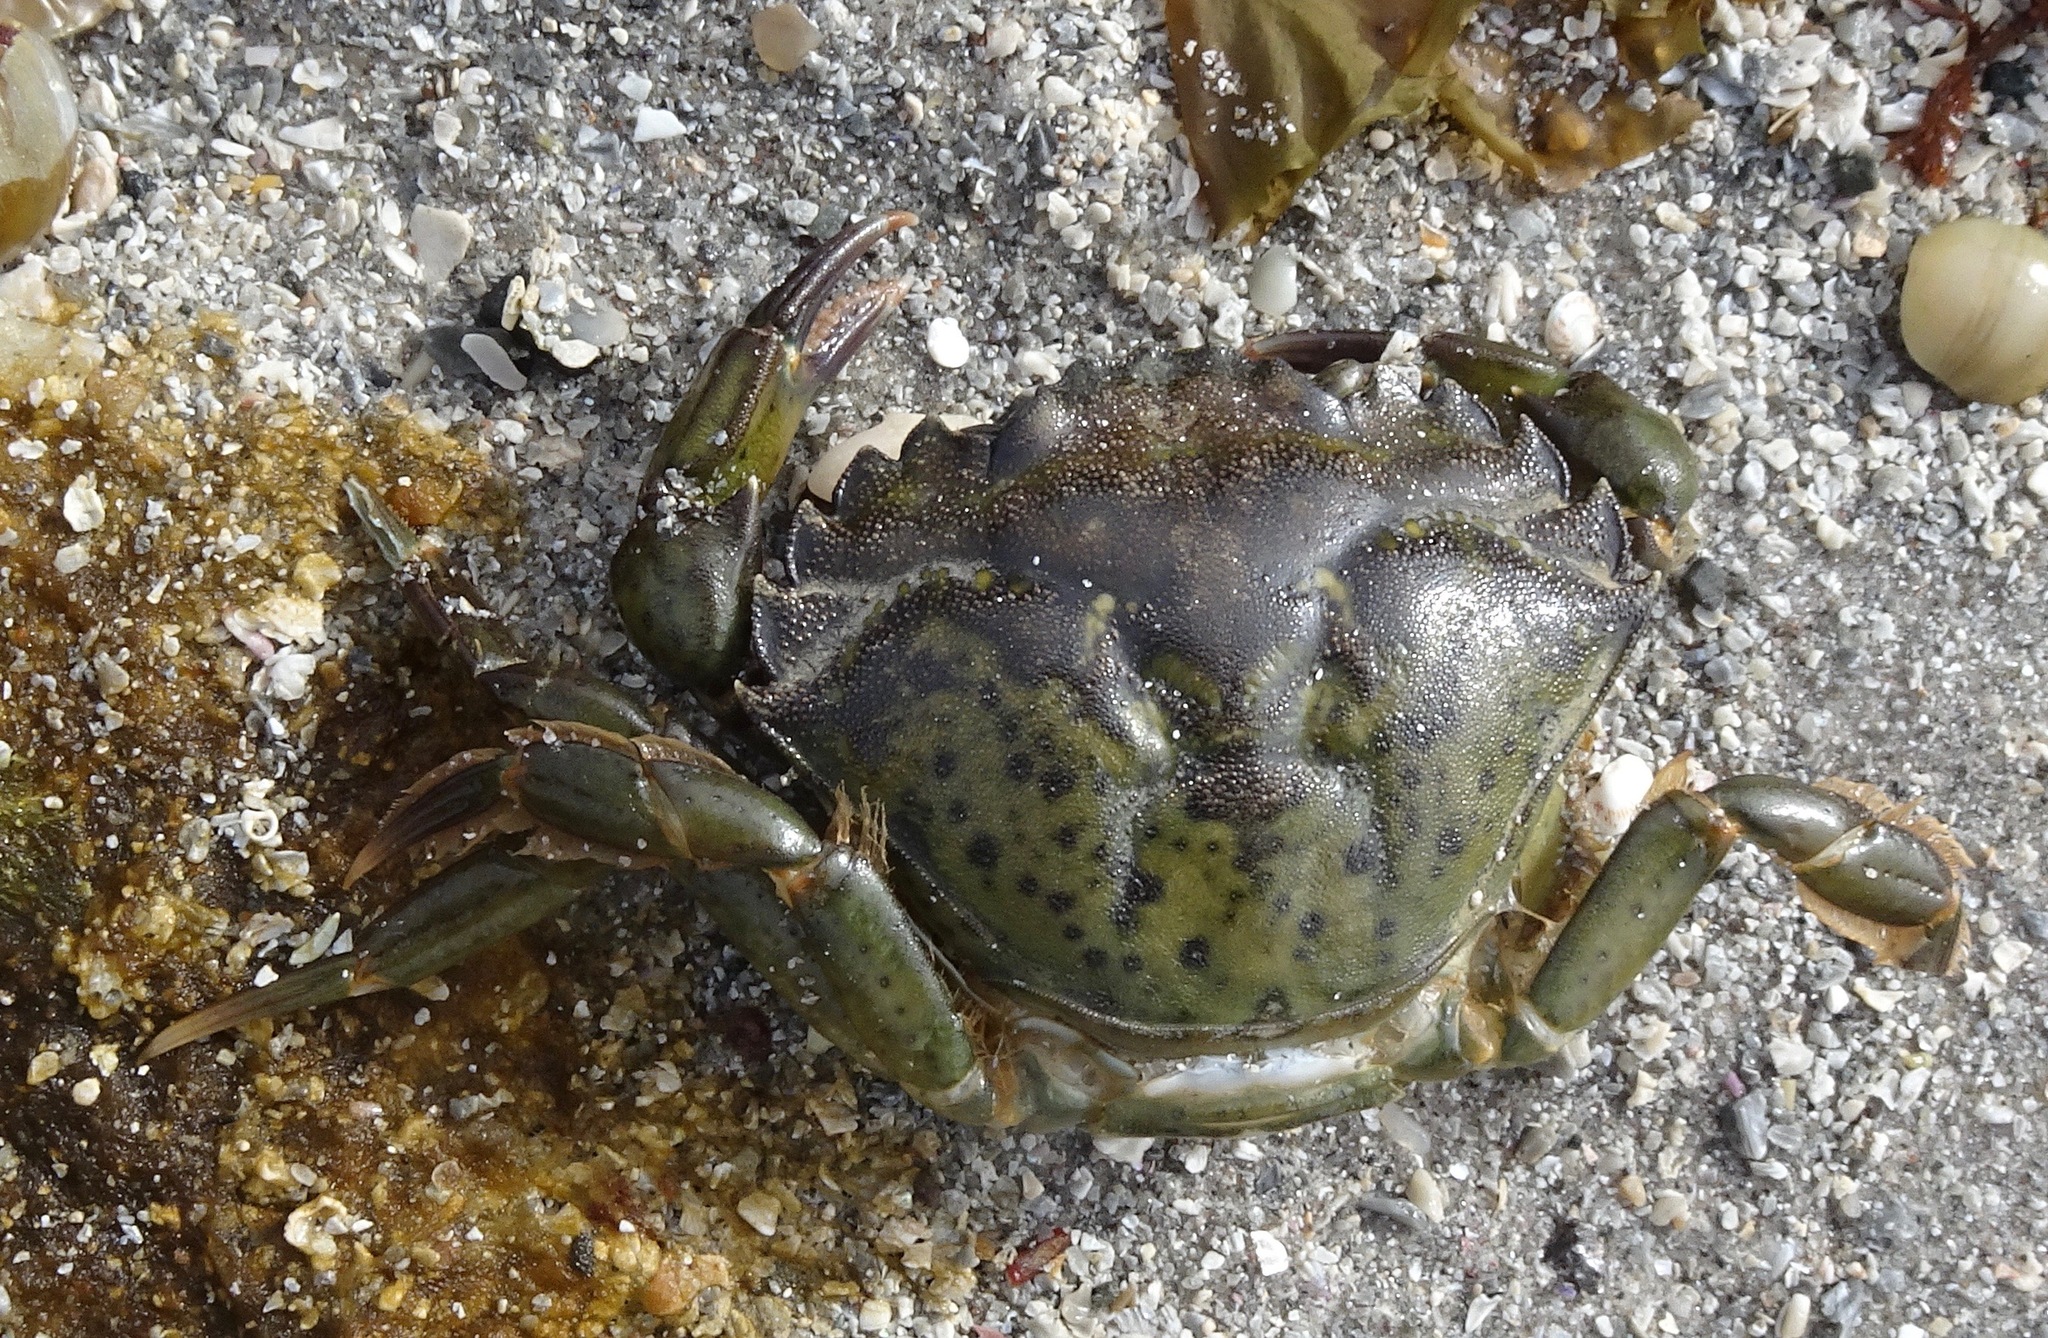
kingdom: Animalia
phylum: Arthropoda
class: Malacostraca
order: Decapoda
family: Carcinidae
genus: Carcinus
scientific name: Carcinus maenas
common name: European green crab
